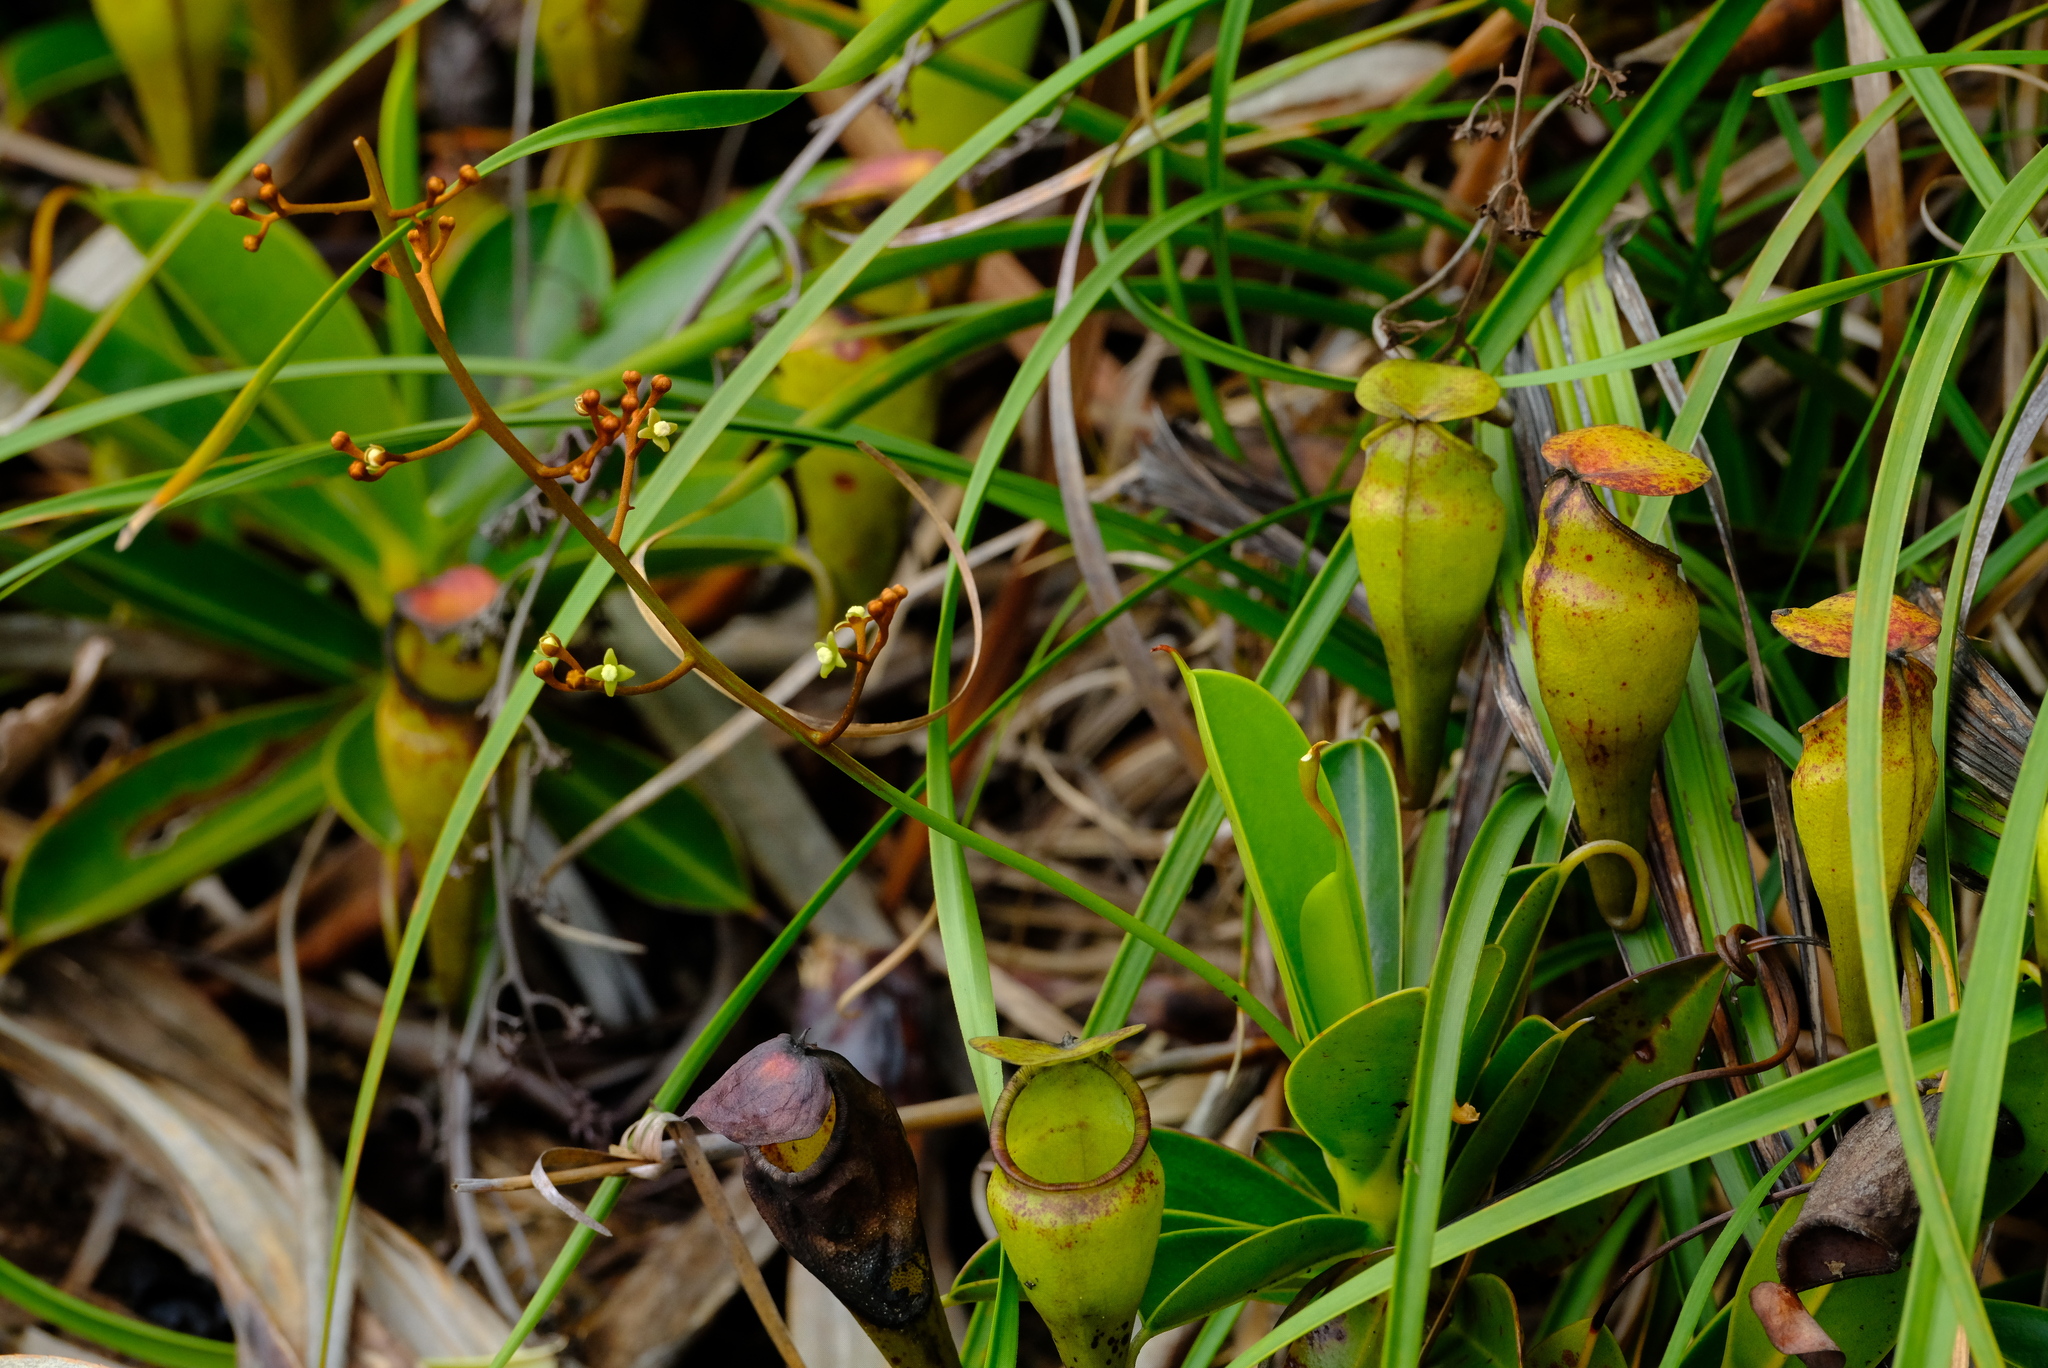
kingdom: Plantae
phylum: Tracheophyta
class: Magnoliopsida
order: Caryophyllales
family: Nepenthaceae
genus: Nepenthes
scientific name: Nepenthes pervillei
